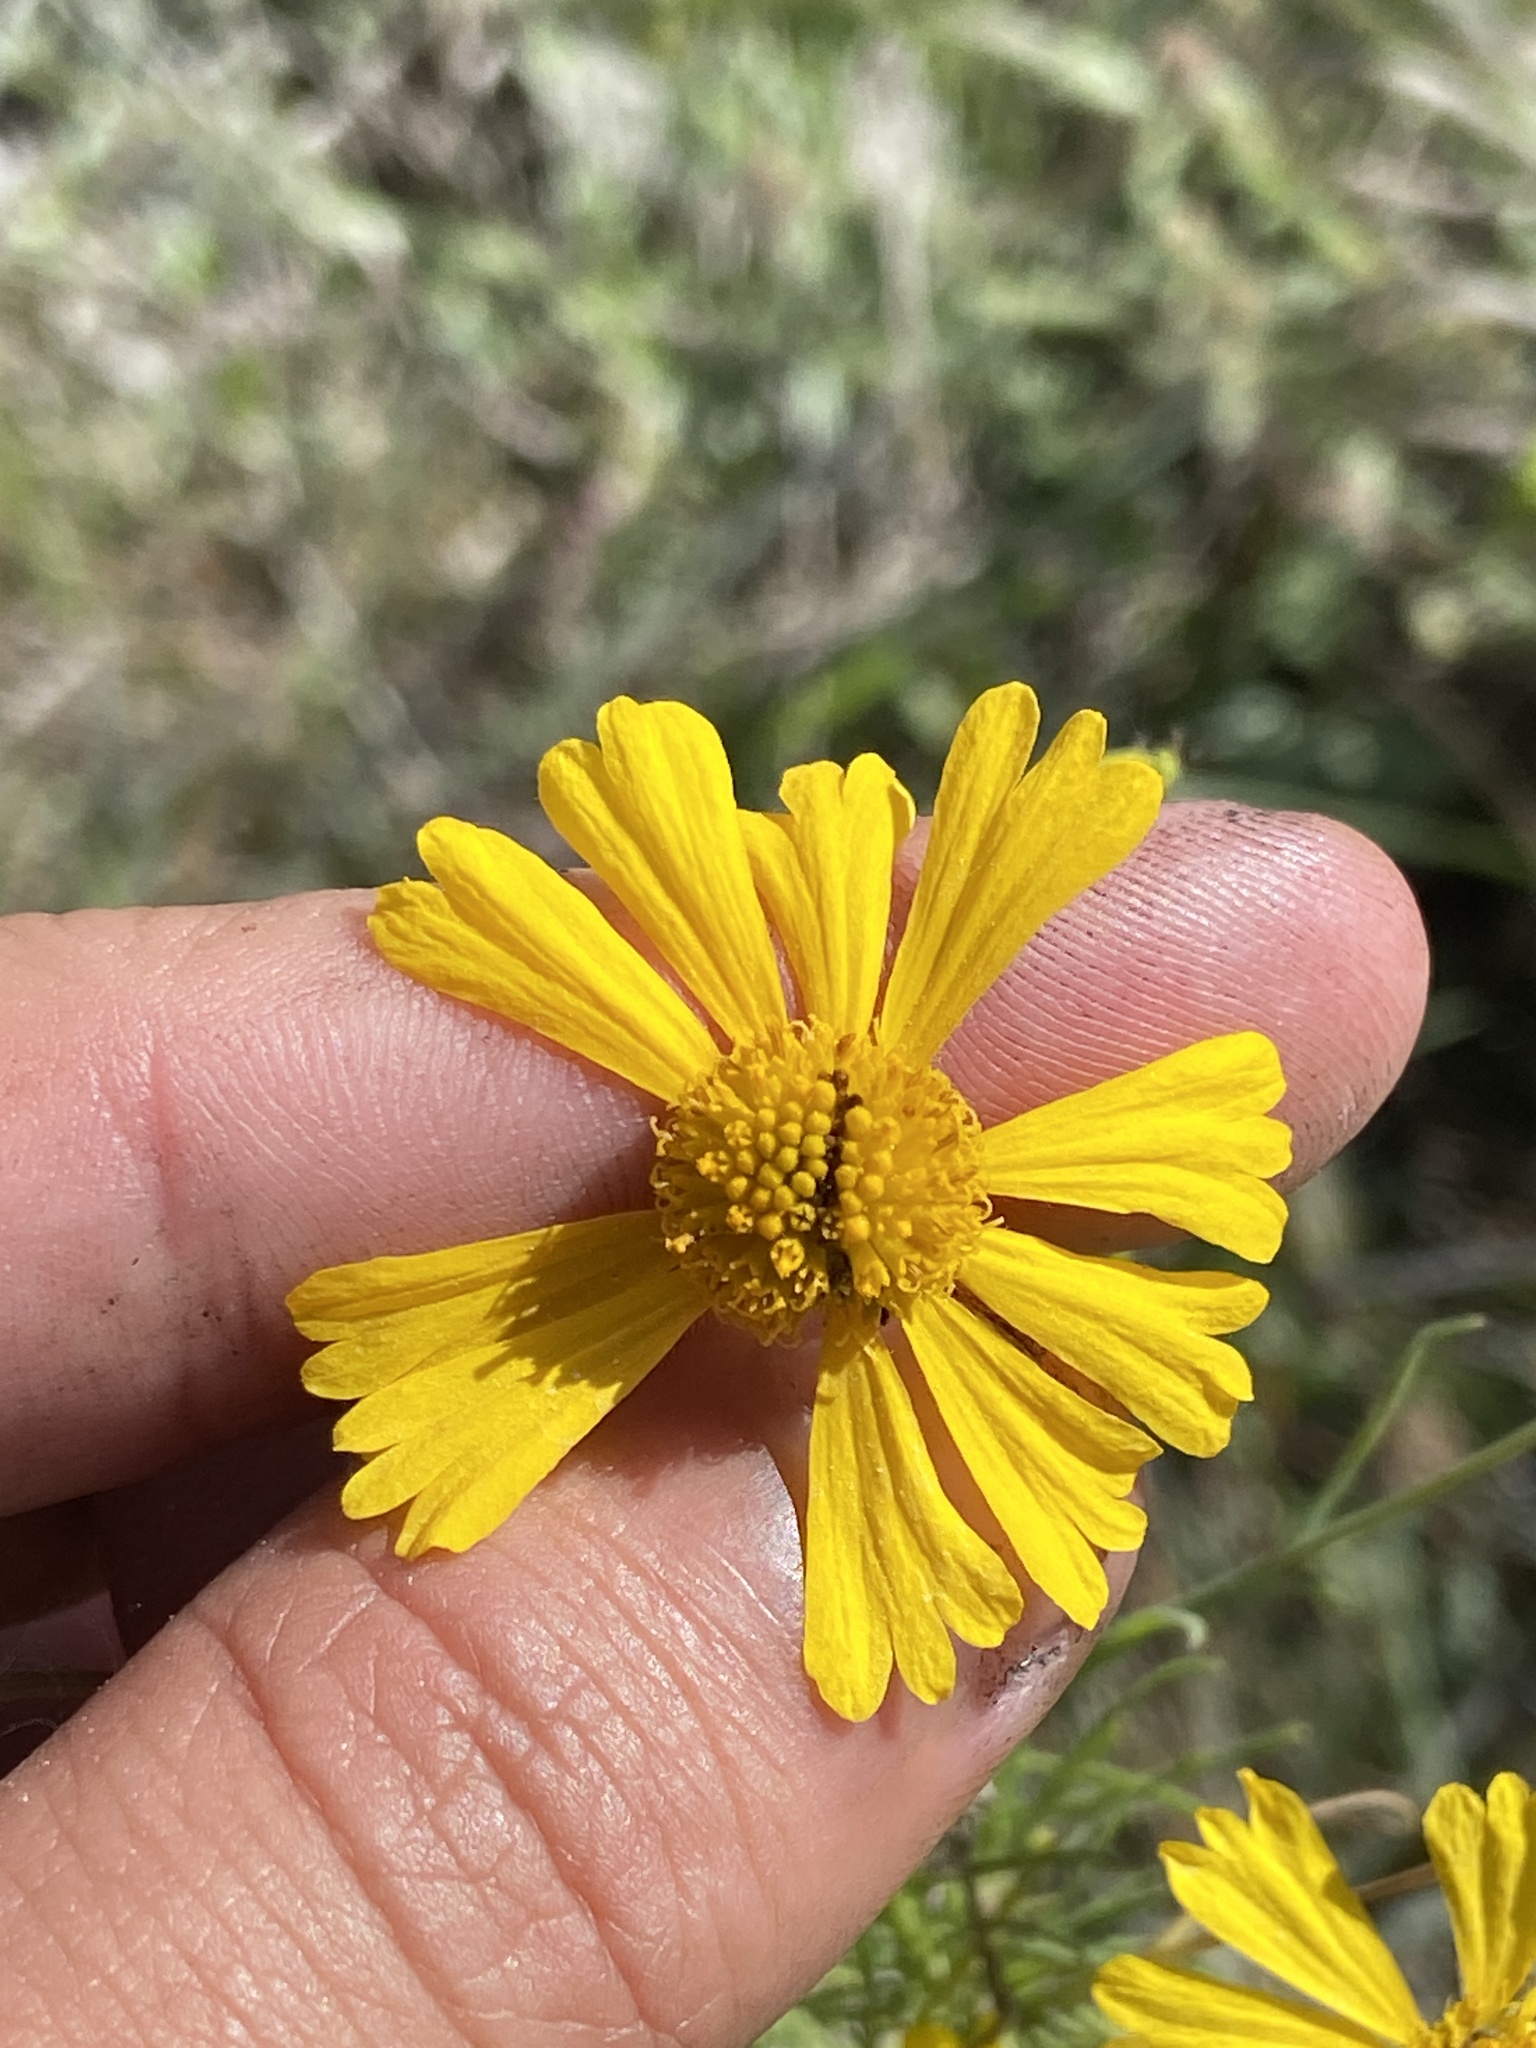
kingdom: Plantae
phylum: Tracheophyta
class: Magnoliopsida
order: Asterales
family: Asteraceae
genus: Helenium
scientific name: Helenium amarum
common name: Bitter sneezeweed
